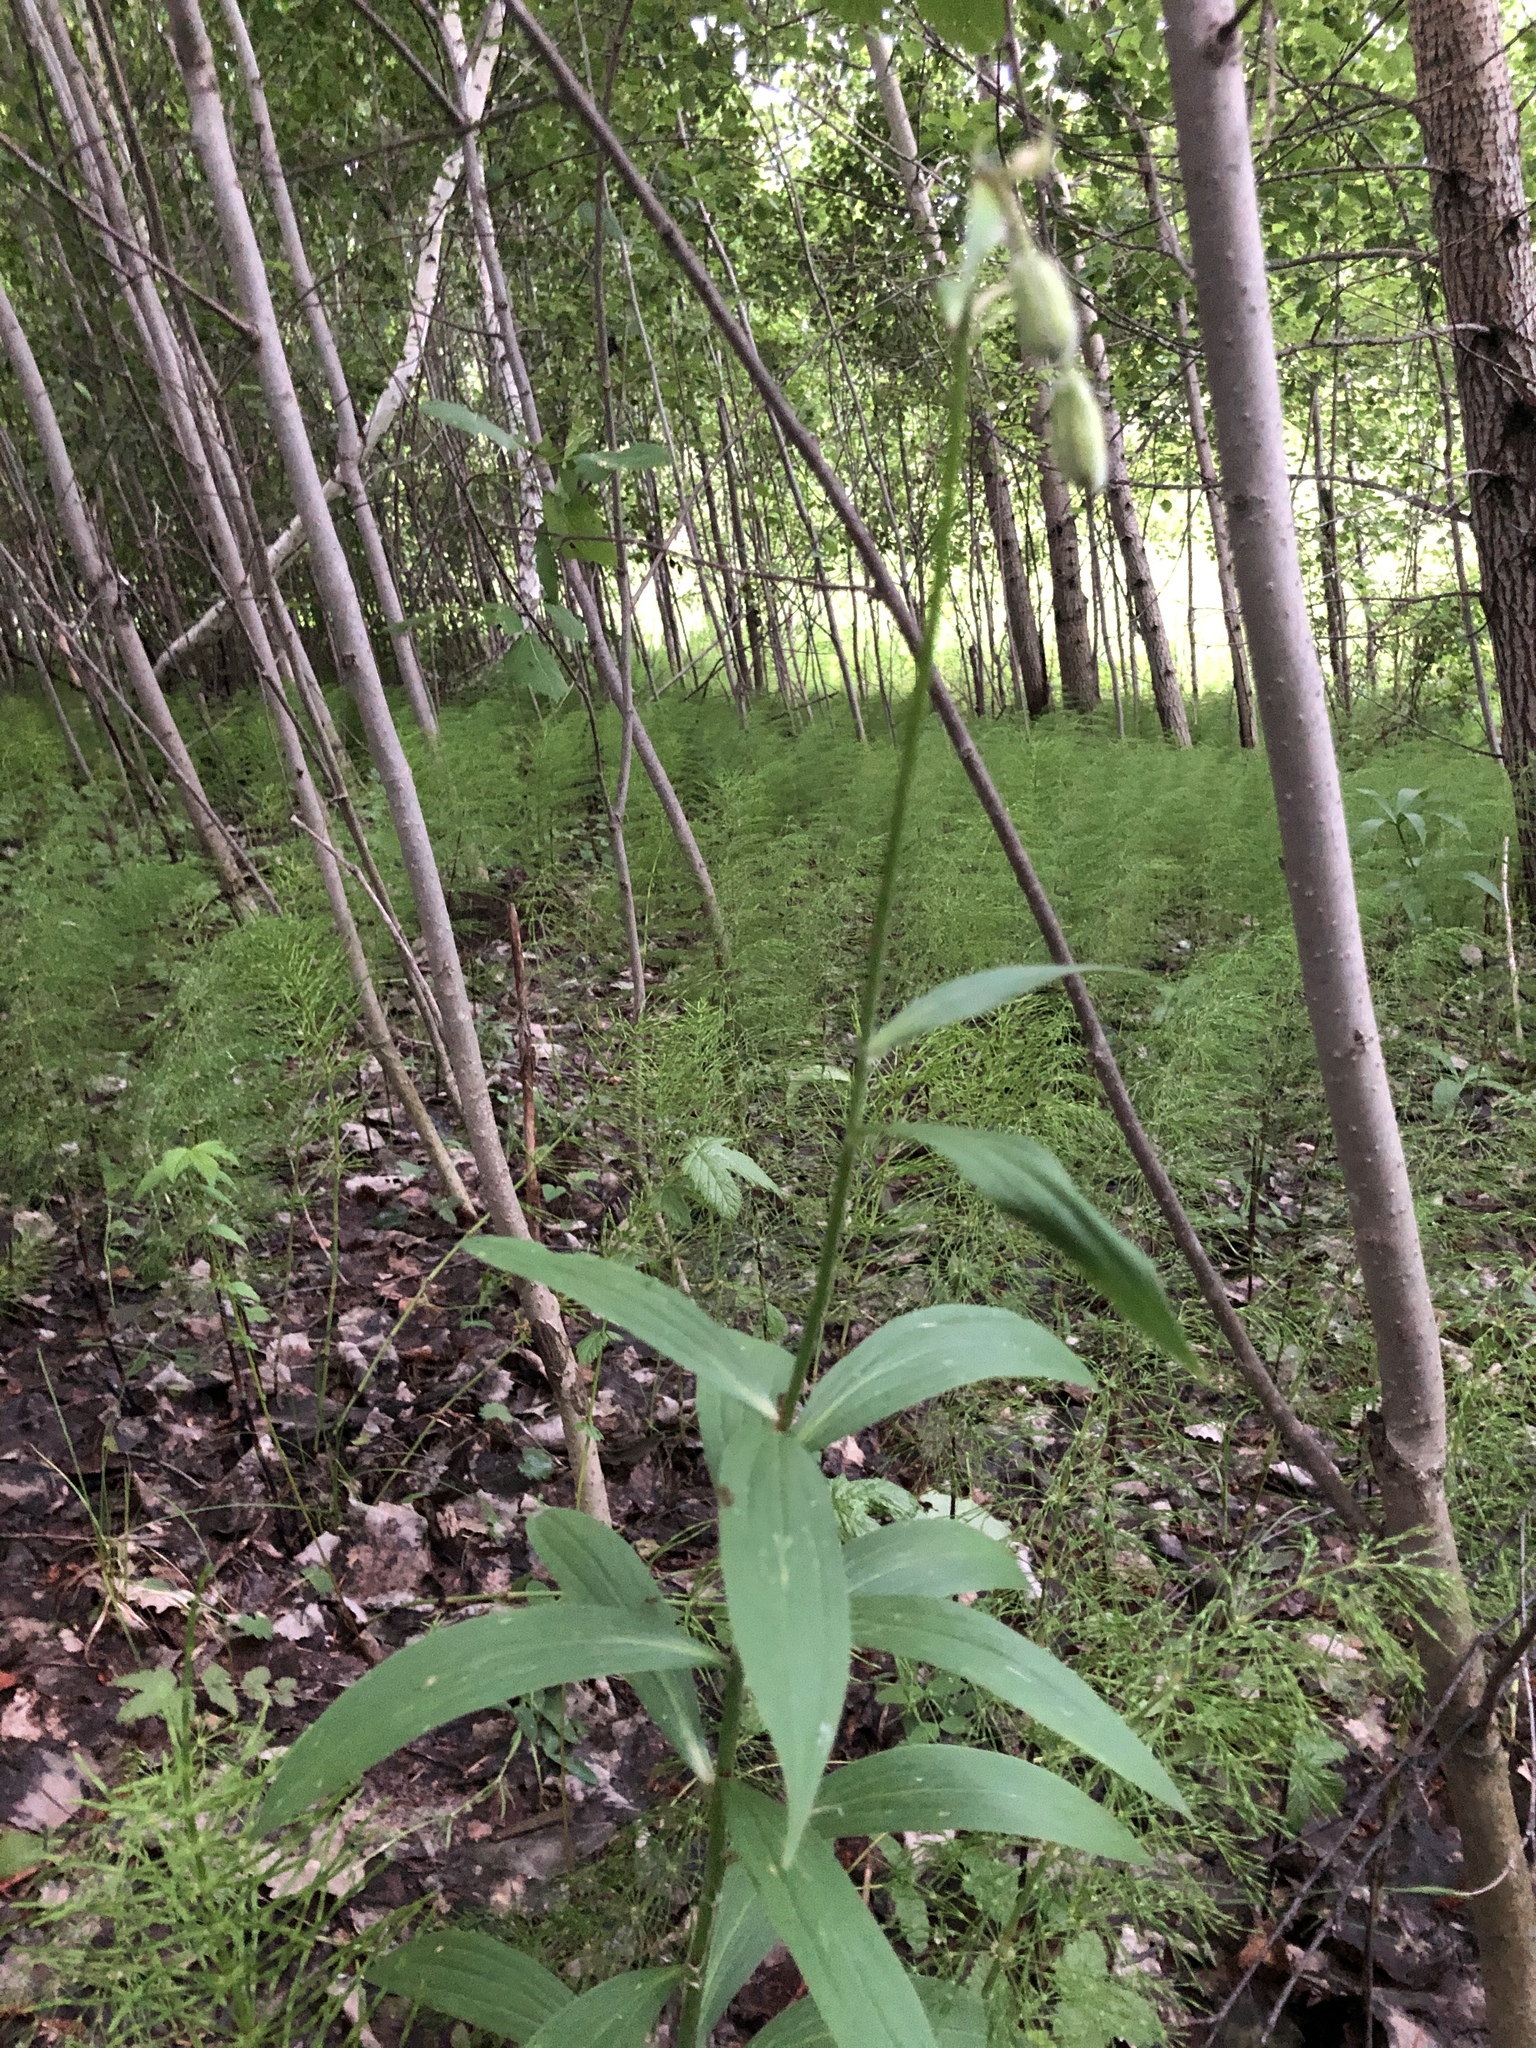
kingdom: Plantae
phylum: Tracheophyta
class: Liliopsida
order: Liliales
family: Liliaceae
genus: Lilium
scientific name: Lilium martagon
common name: Martagon lily
